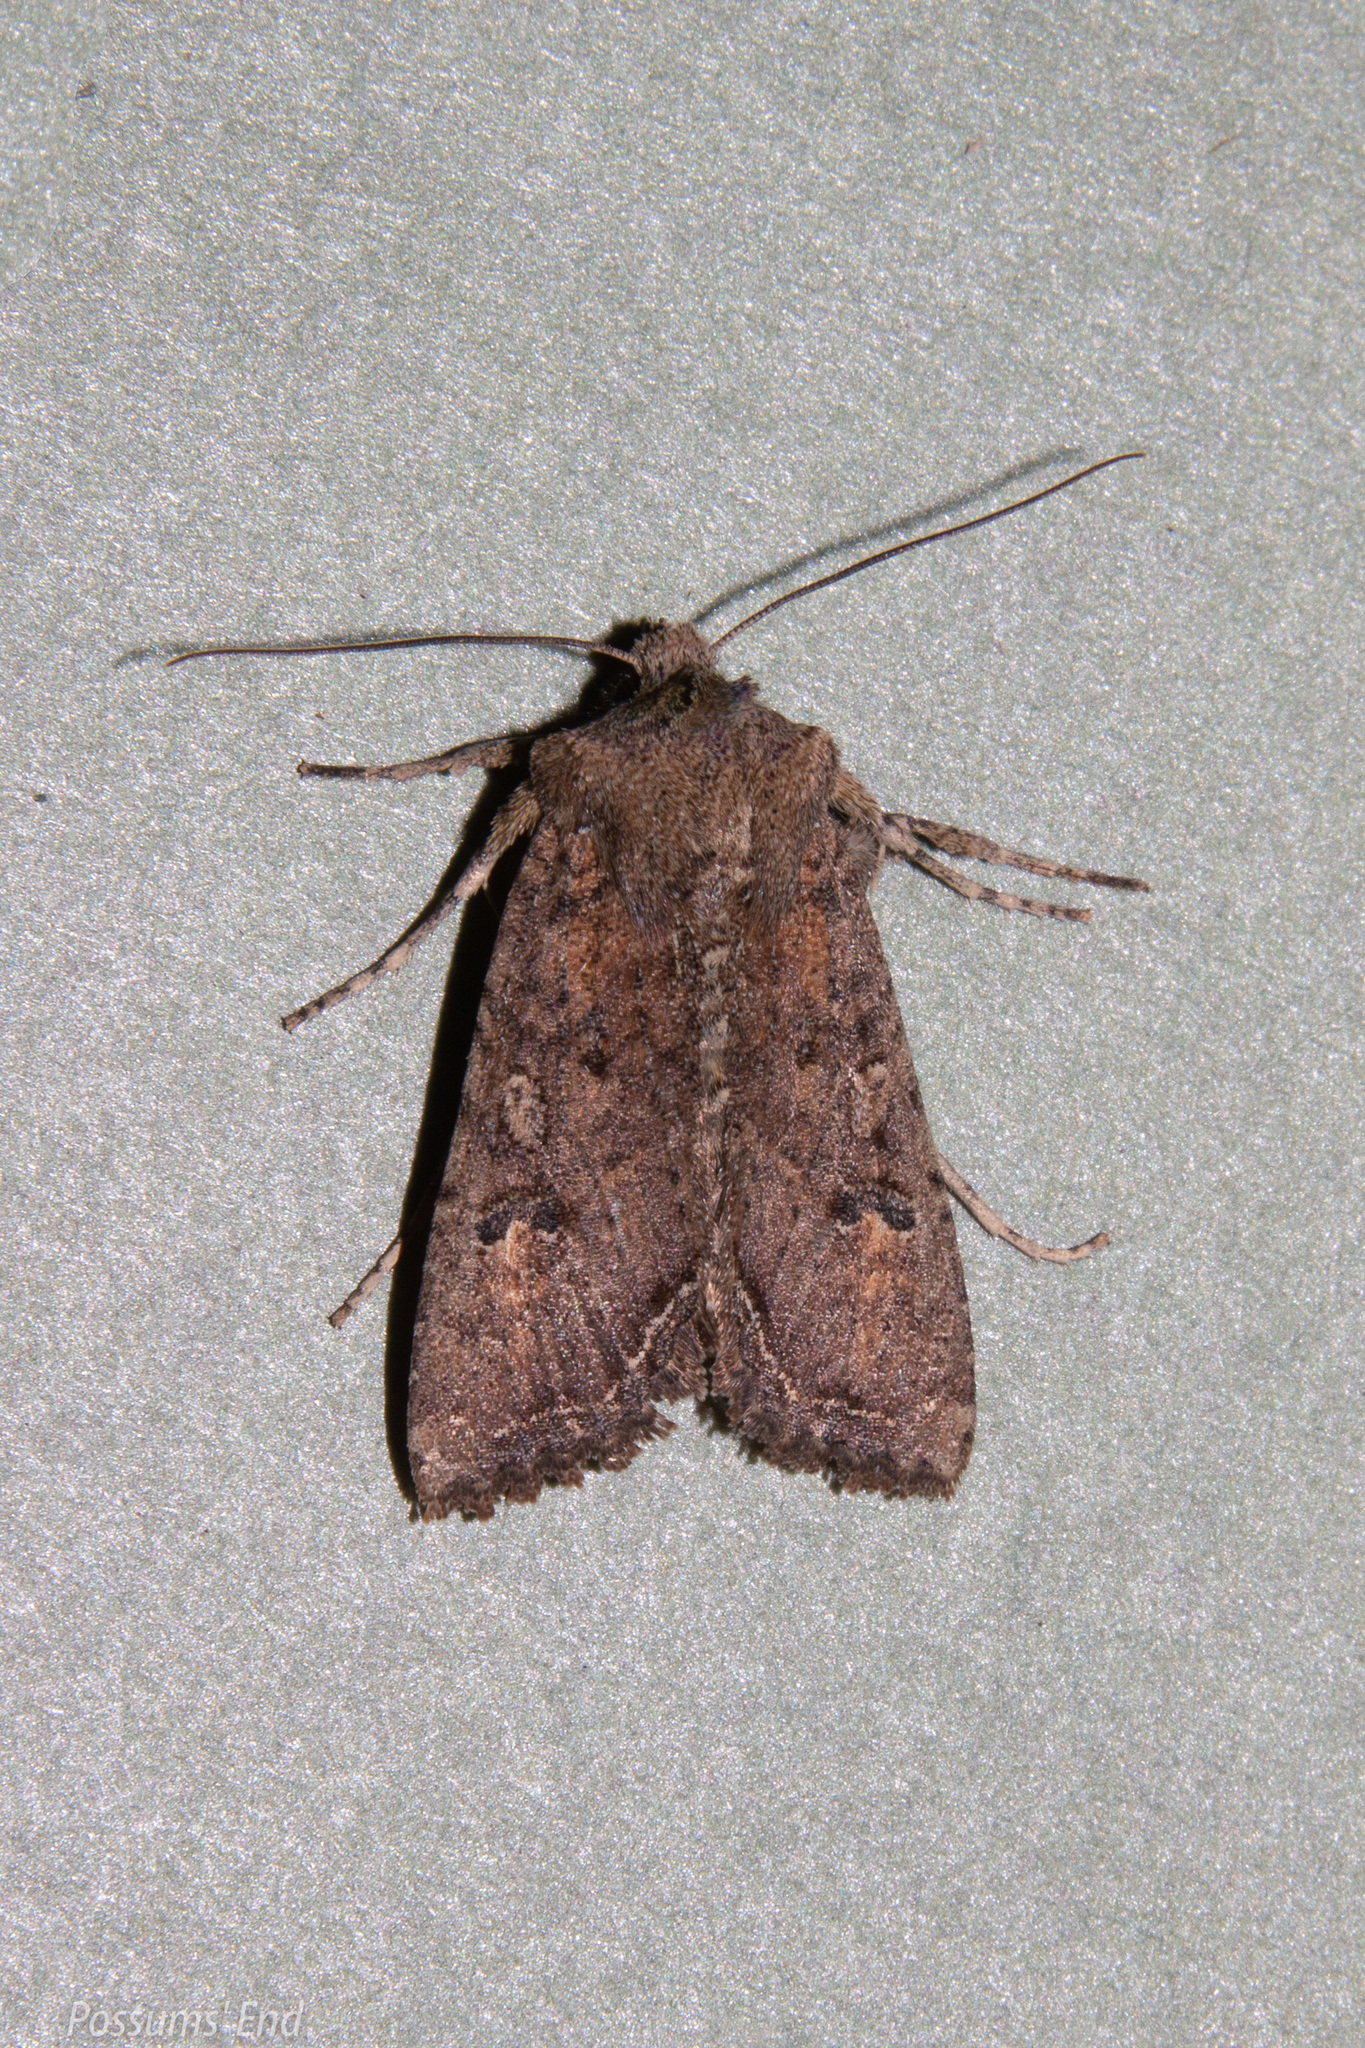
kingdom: Animalia
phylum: Arthropoda
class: Insecta
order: Lepidoptera
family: Noctuidae
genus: Meterana
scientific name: Meterana inchoata
